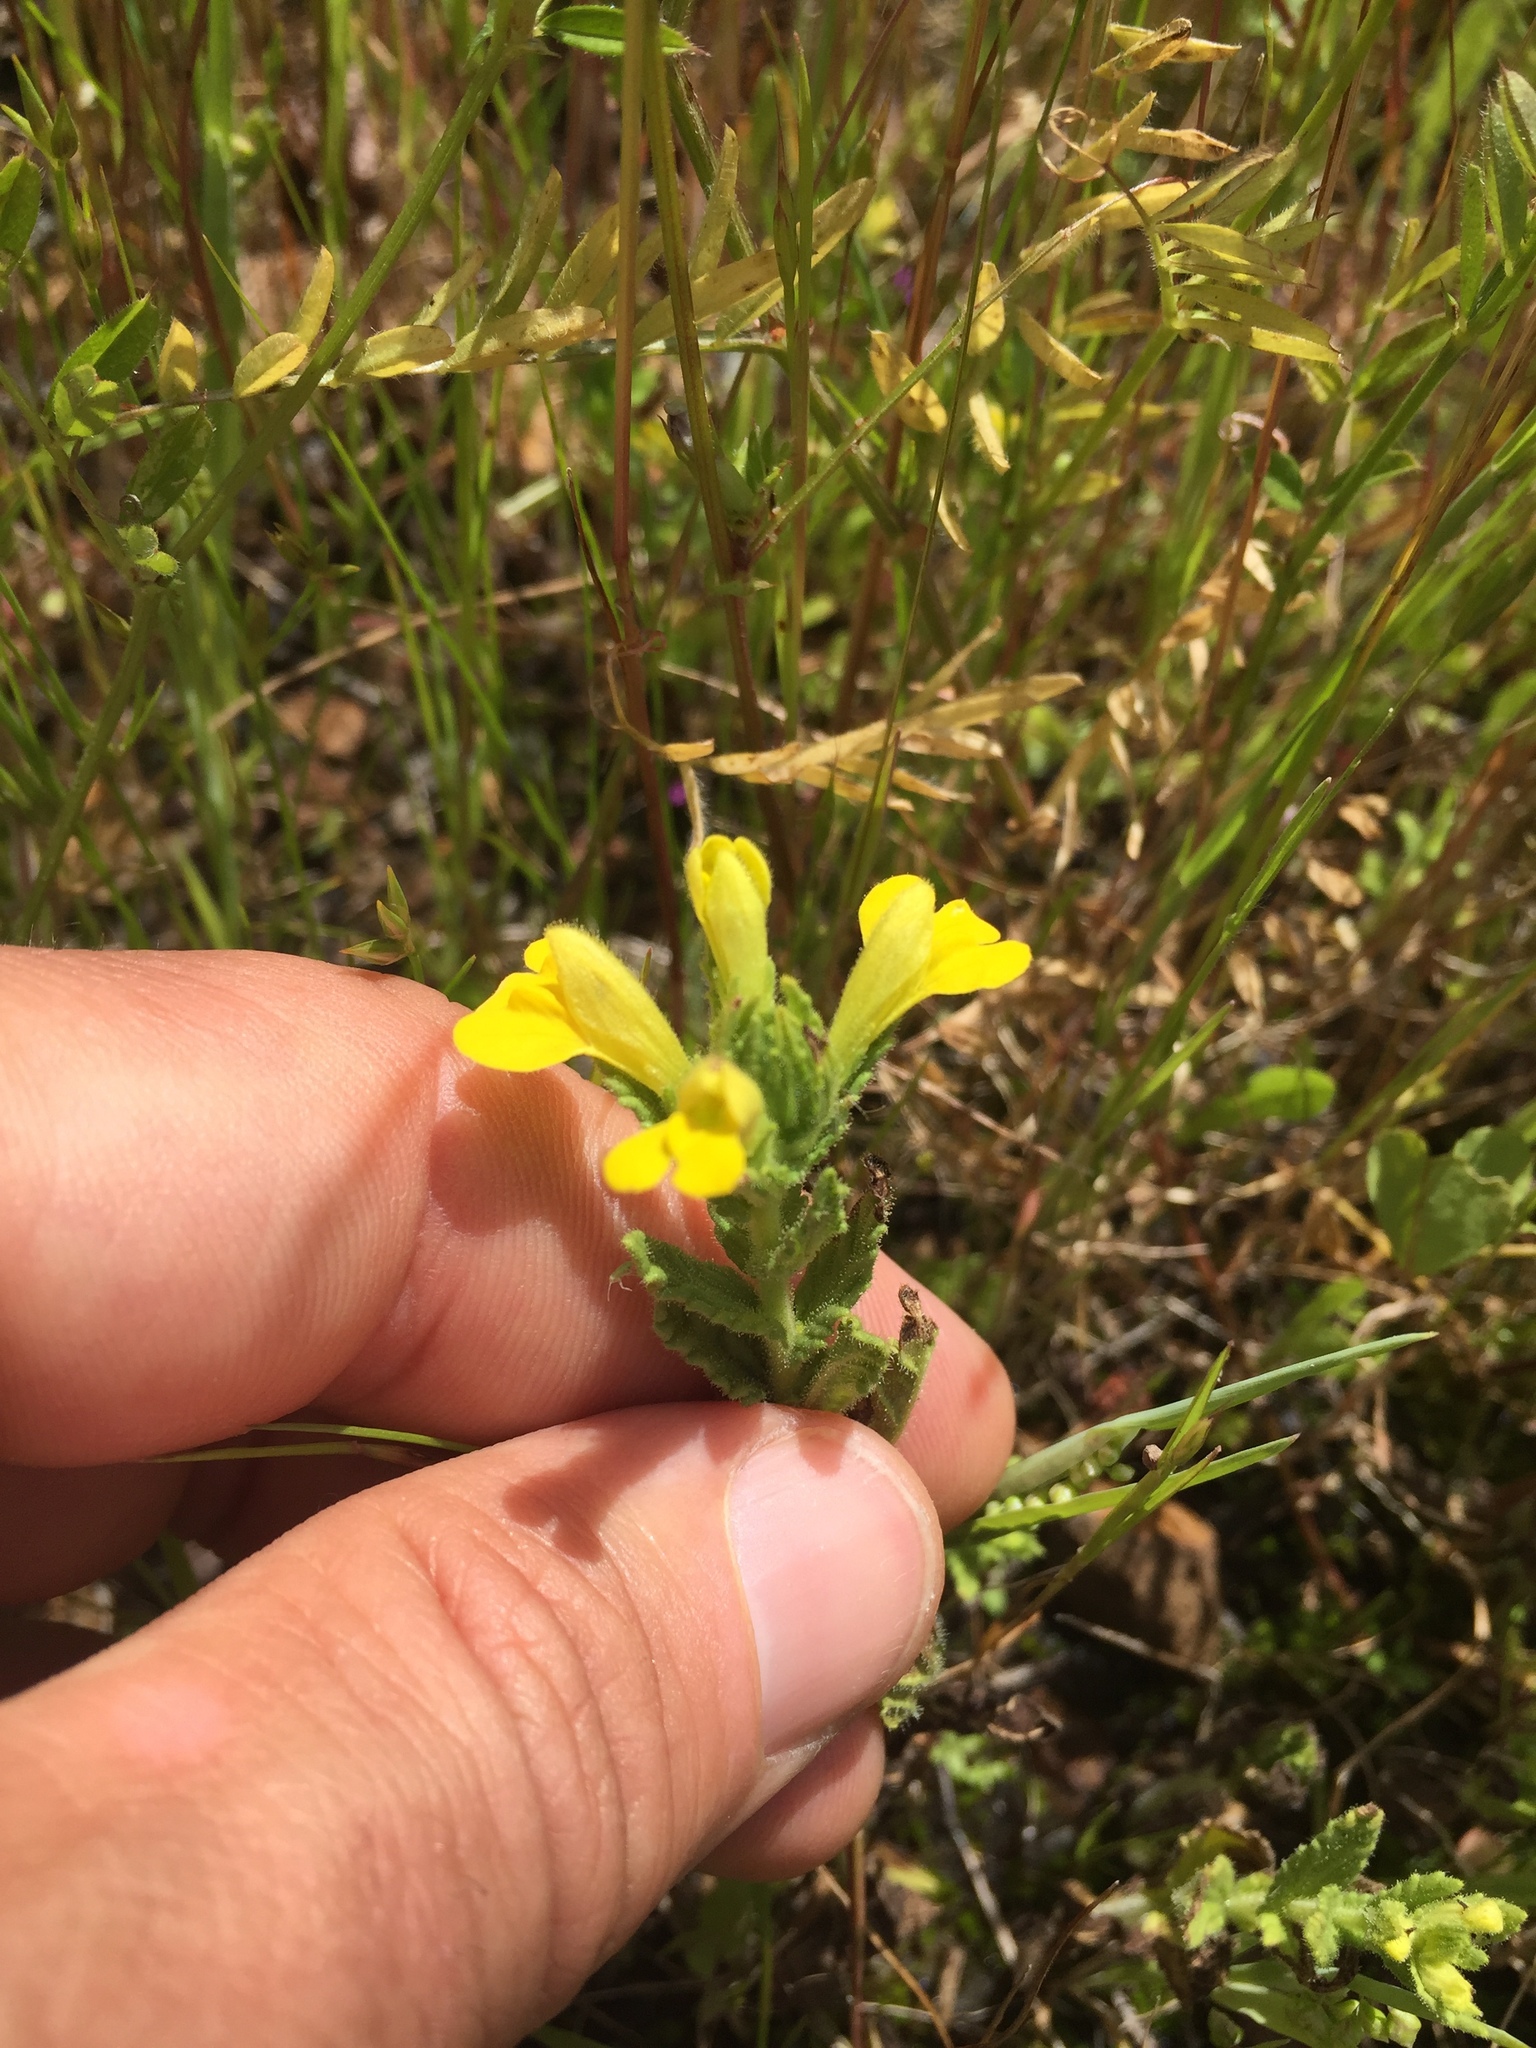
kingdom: Plantae
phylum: Tracheophyta
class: Magnoliopsida
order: Lamiales
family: Orobanchaceae
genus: Bellardia
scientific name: Bellardia viscosa
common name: Sticky parentucellia
